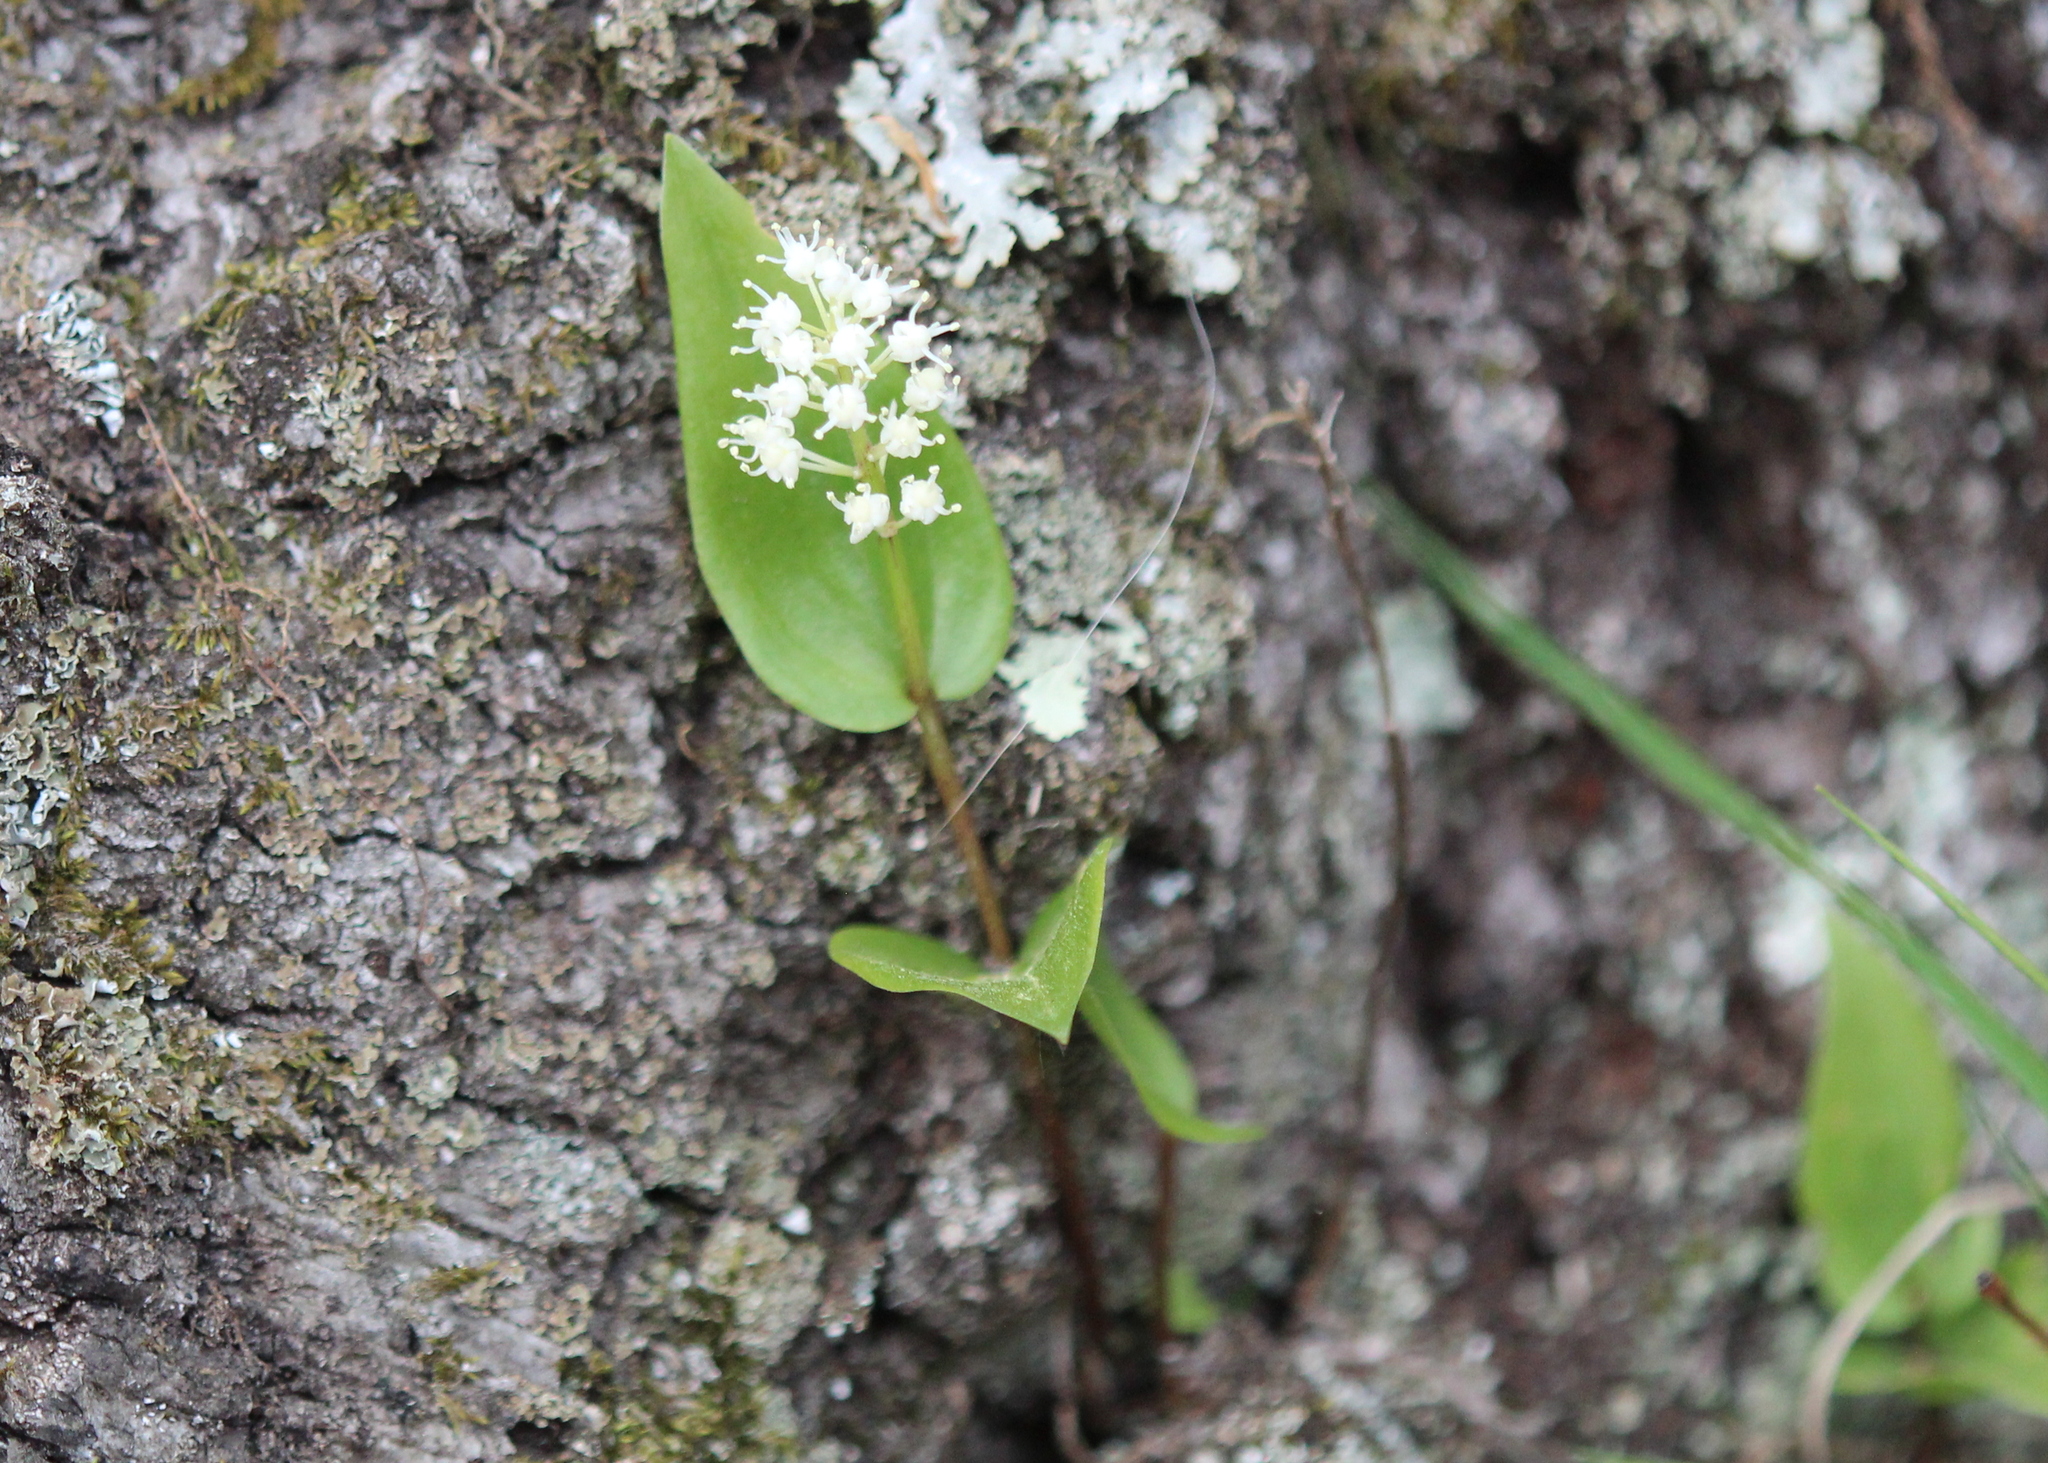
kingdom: Plantae
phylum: Tracheophyta
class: Liliopsida
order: Asparagales
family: Asparagaceae
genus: Maianthemum
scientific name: Maianthemum canadense
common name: False lily-of-the-valley
